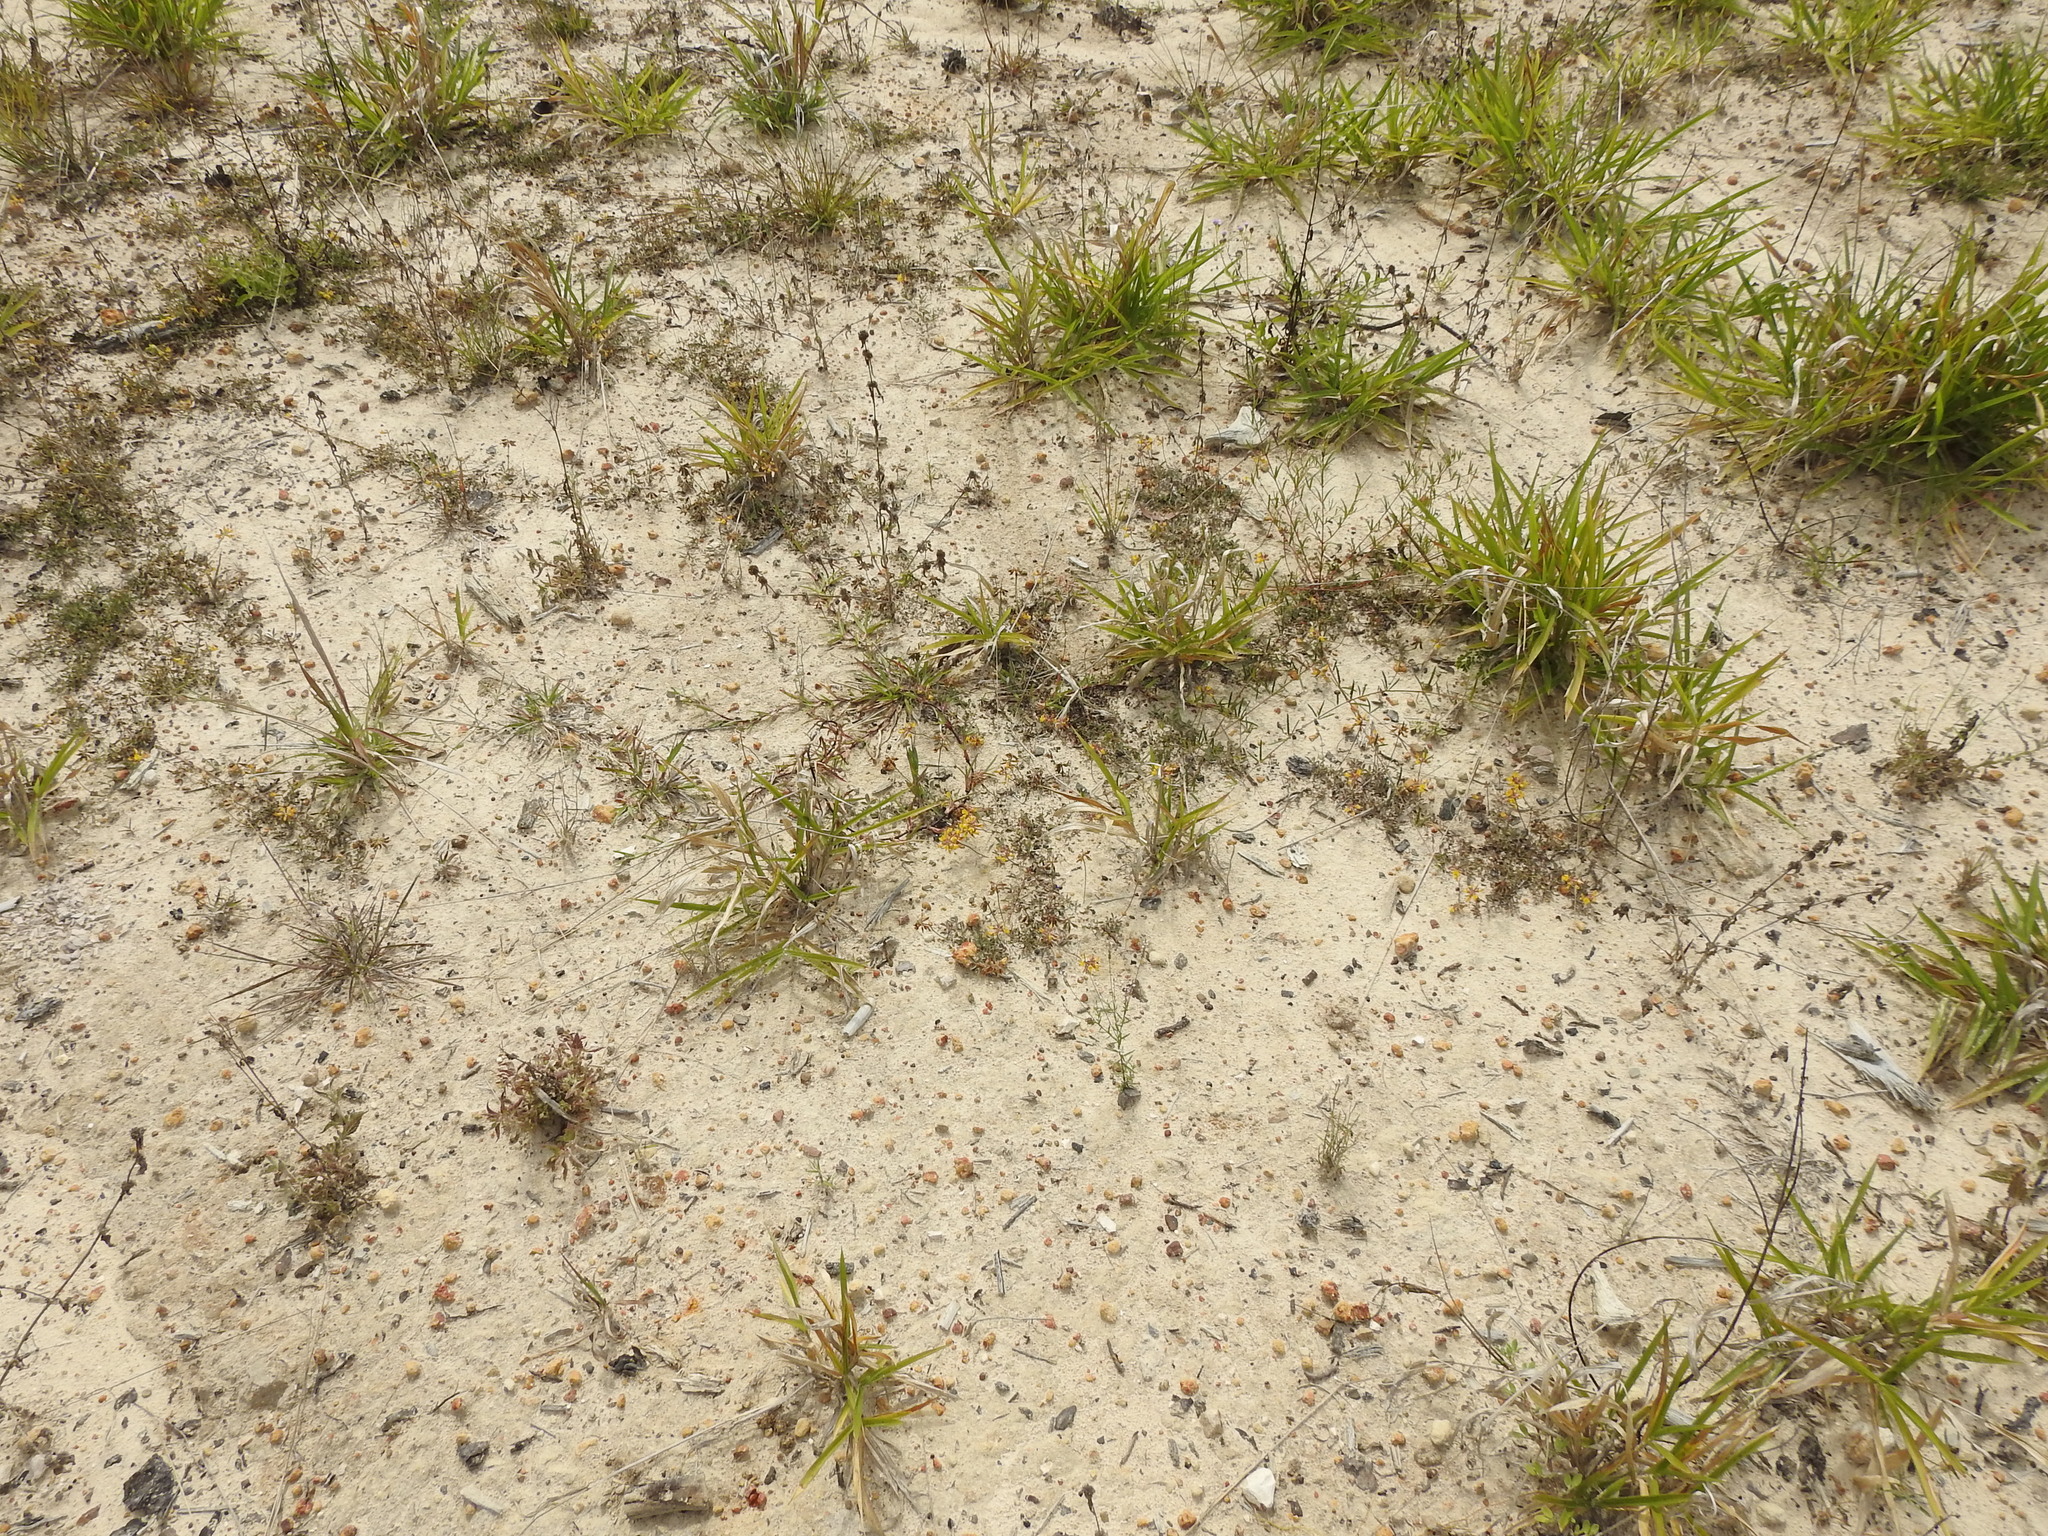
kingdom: Plantae
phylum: Tracheophyta
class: Magnoliopsida
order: Fabales
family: Fabaceae
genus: Listia
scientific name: Listia bainesii
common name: Lotononis
